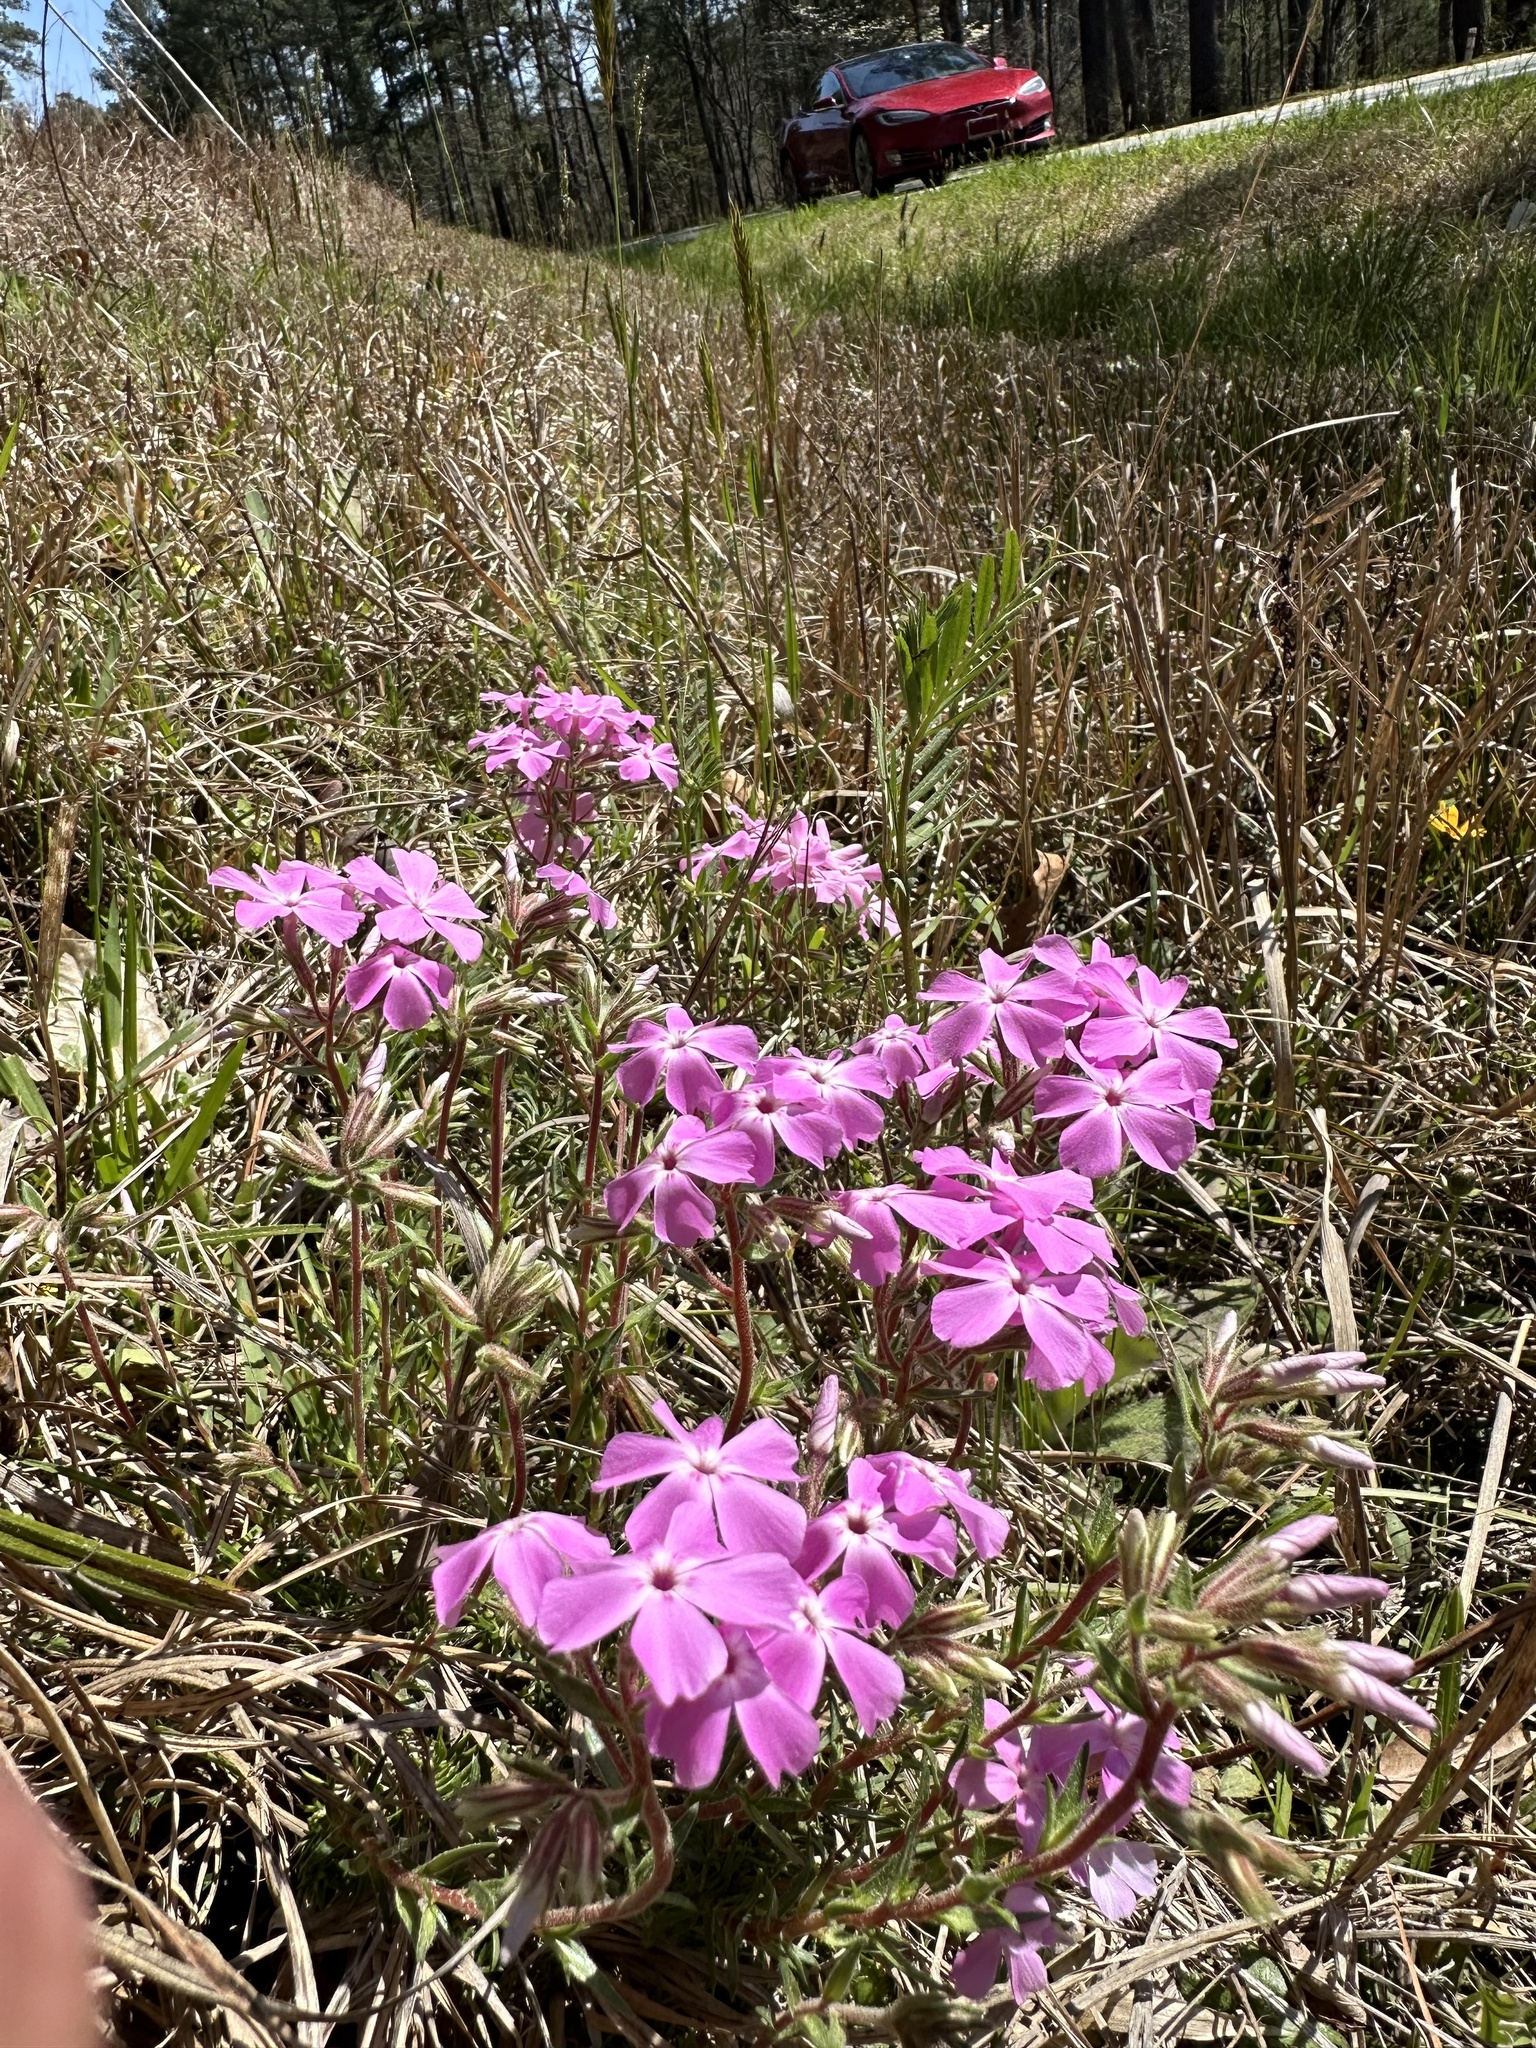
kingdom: Plantae
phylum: Tracheophyta
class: Magnoliopsida
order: Ericales
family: Polemoniaceae
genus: Phlox
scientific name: Phlox nivalis
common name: Trailing phlox
